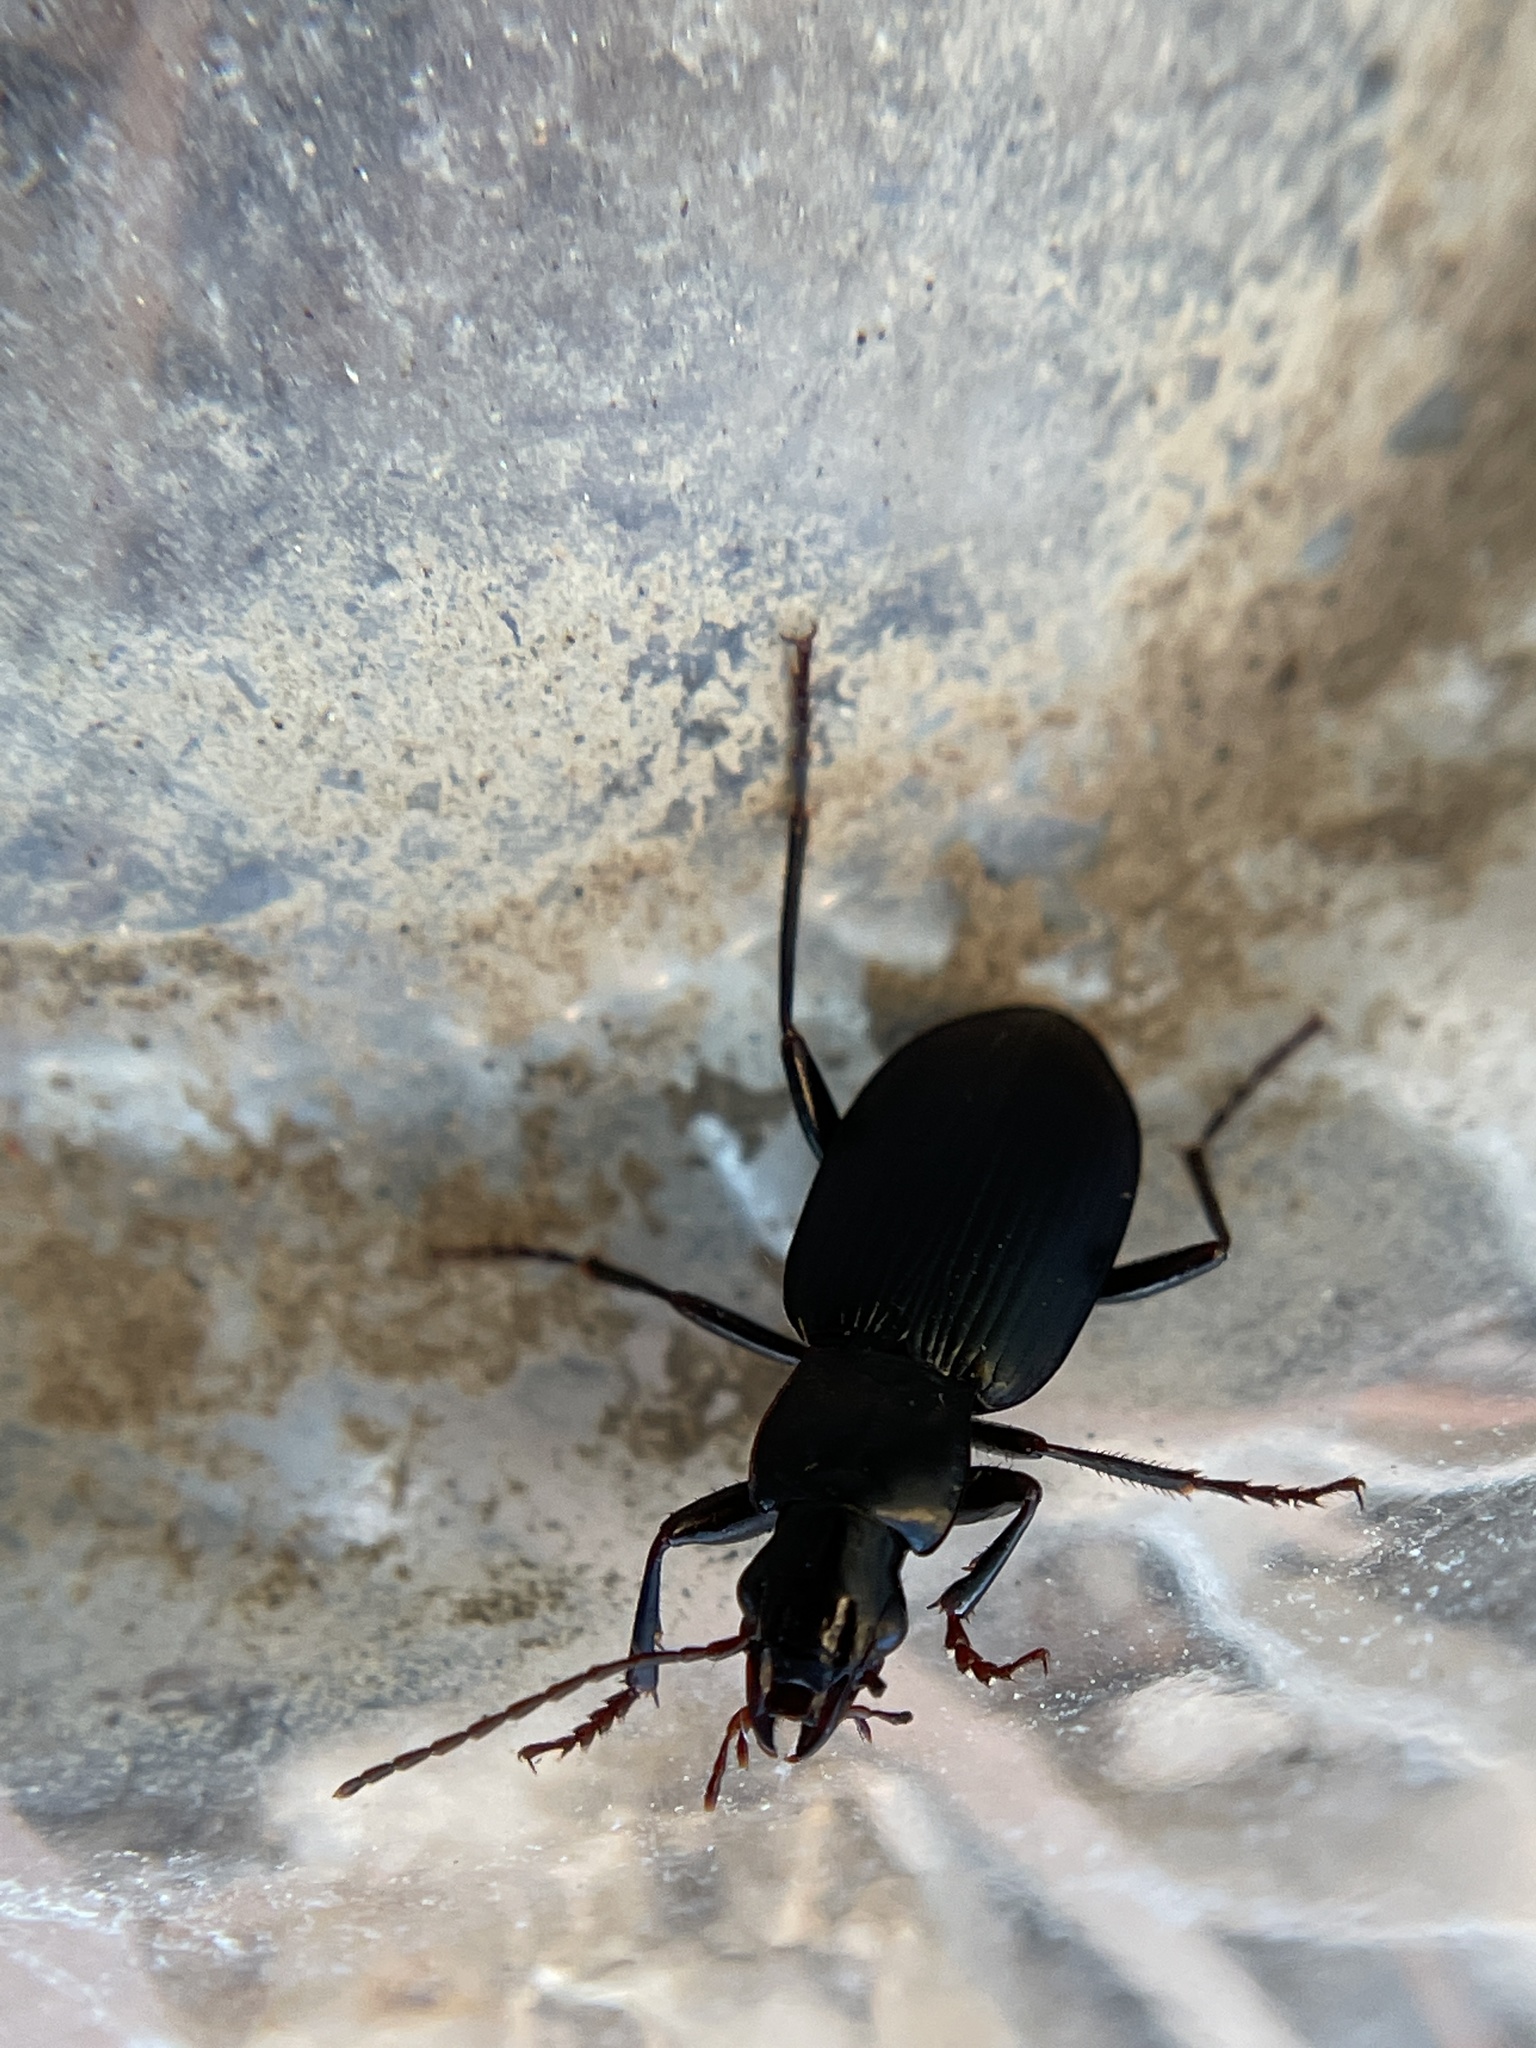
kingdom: Animalia
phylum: Arthropoda
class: Insecta
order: Coleoptera
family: Carabidae
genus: Laemostenus
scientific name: Laemostenus complanatus
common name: Cosmopolitan ground beetle
